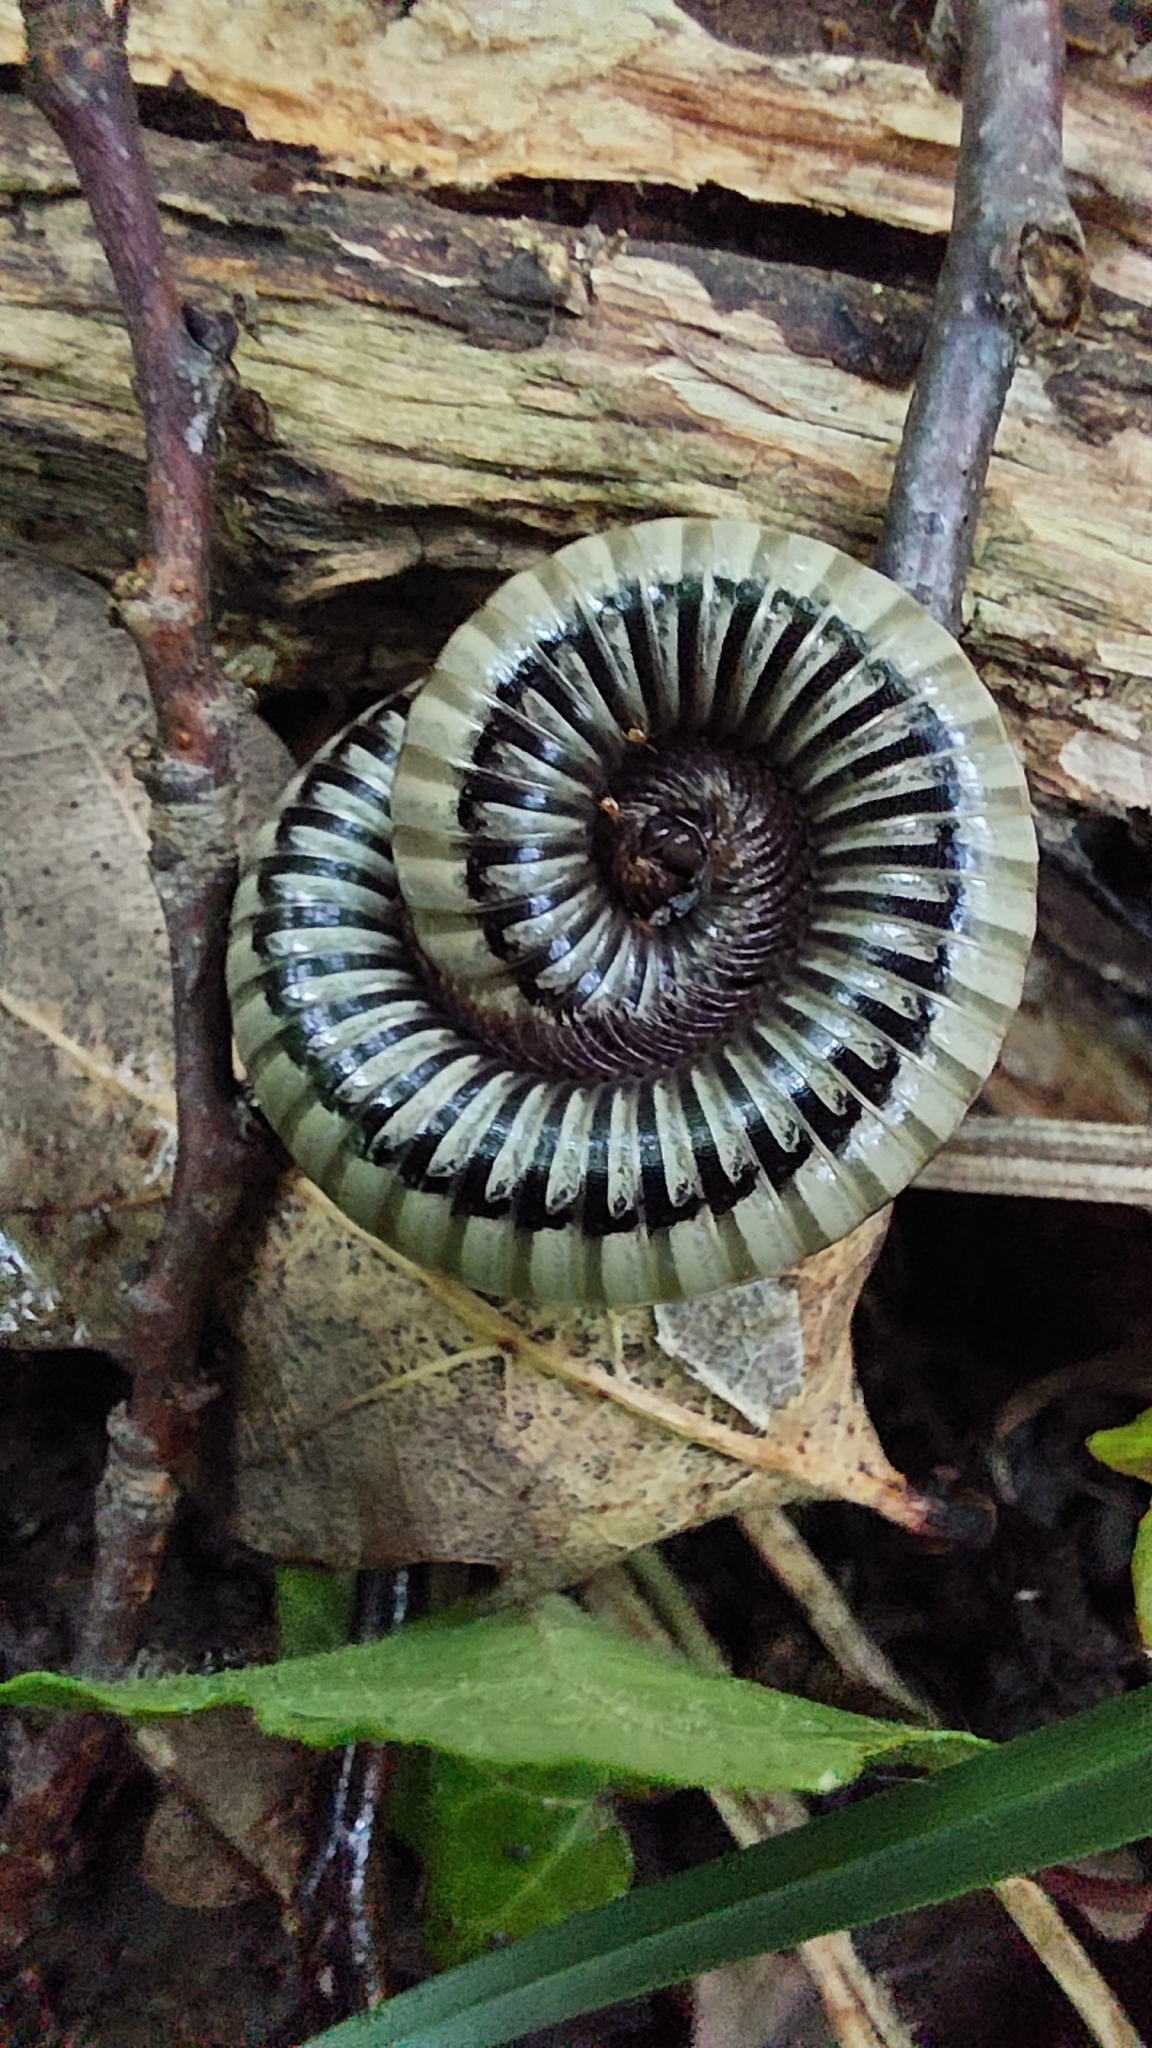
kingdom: Animalia
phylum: Arthropoda
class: Diplopoda
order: Julida
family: Julidae
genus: Pachyiulus
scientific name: Pachyiulus krivolutskyi
